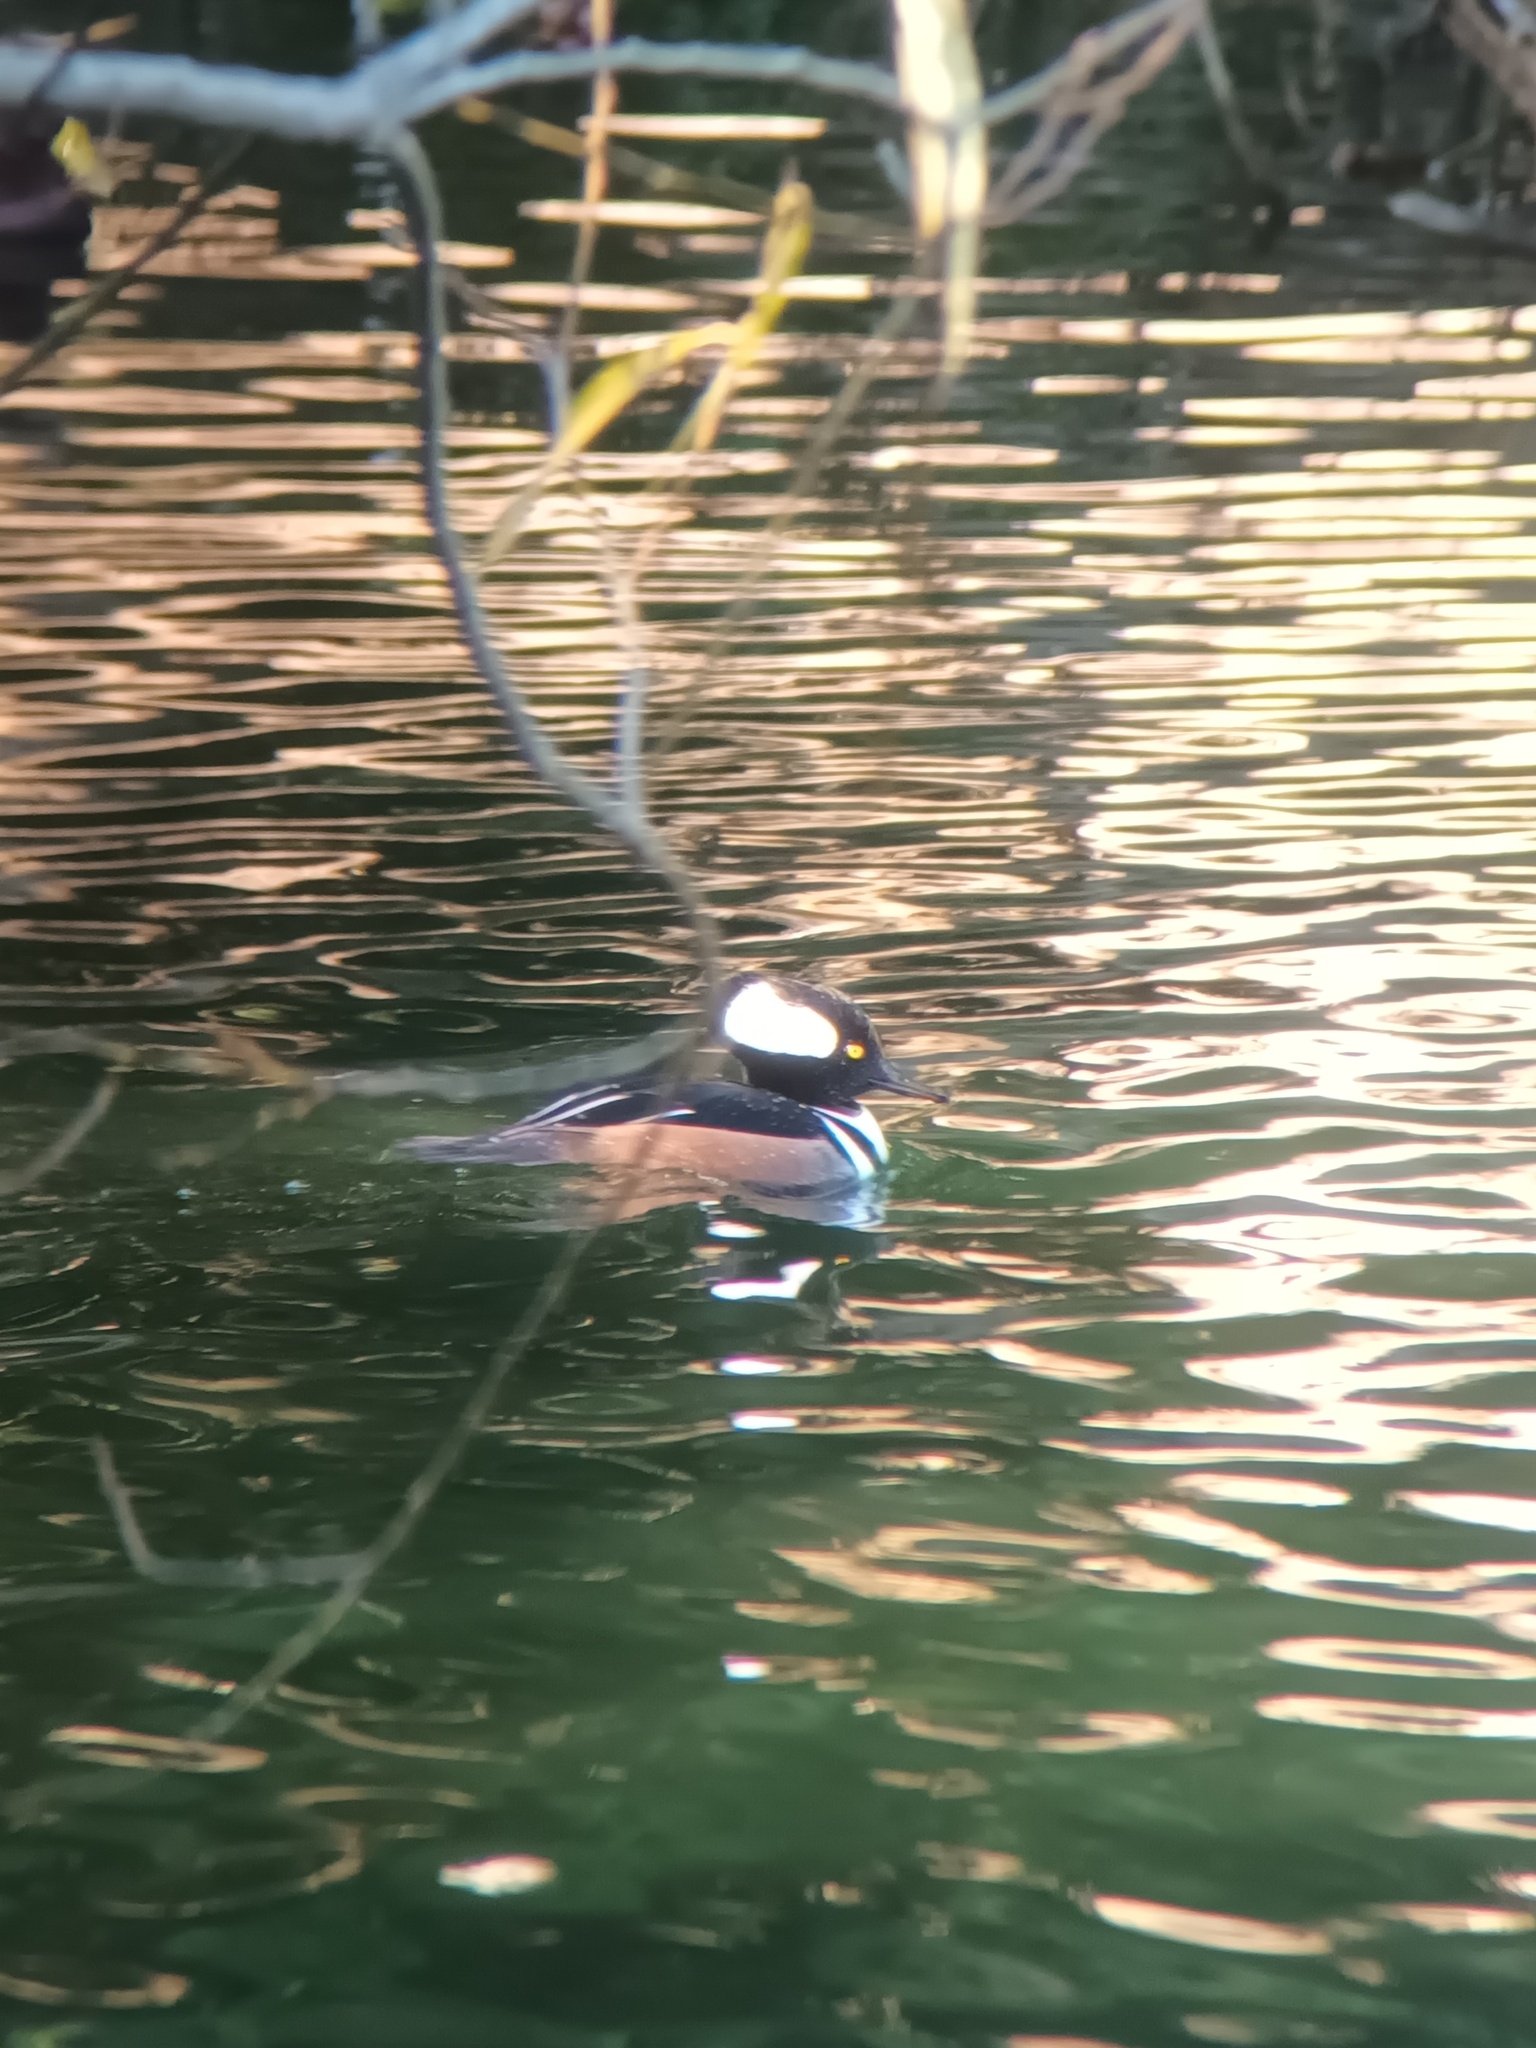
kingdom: Animalia
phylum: Chordata
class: Aves
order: Anseriformes
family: Anatidae
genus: Lophodytes
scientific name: Lophodytes cucullatus
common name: Hooded merganser
